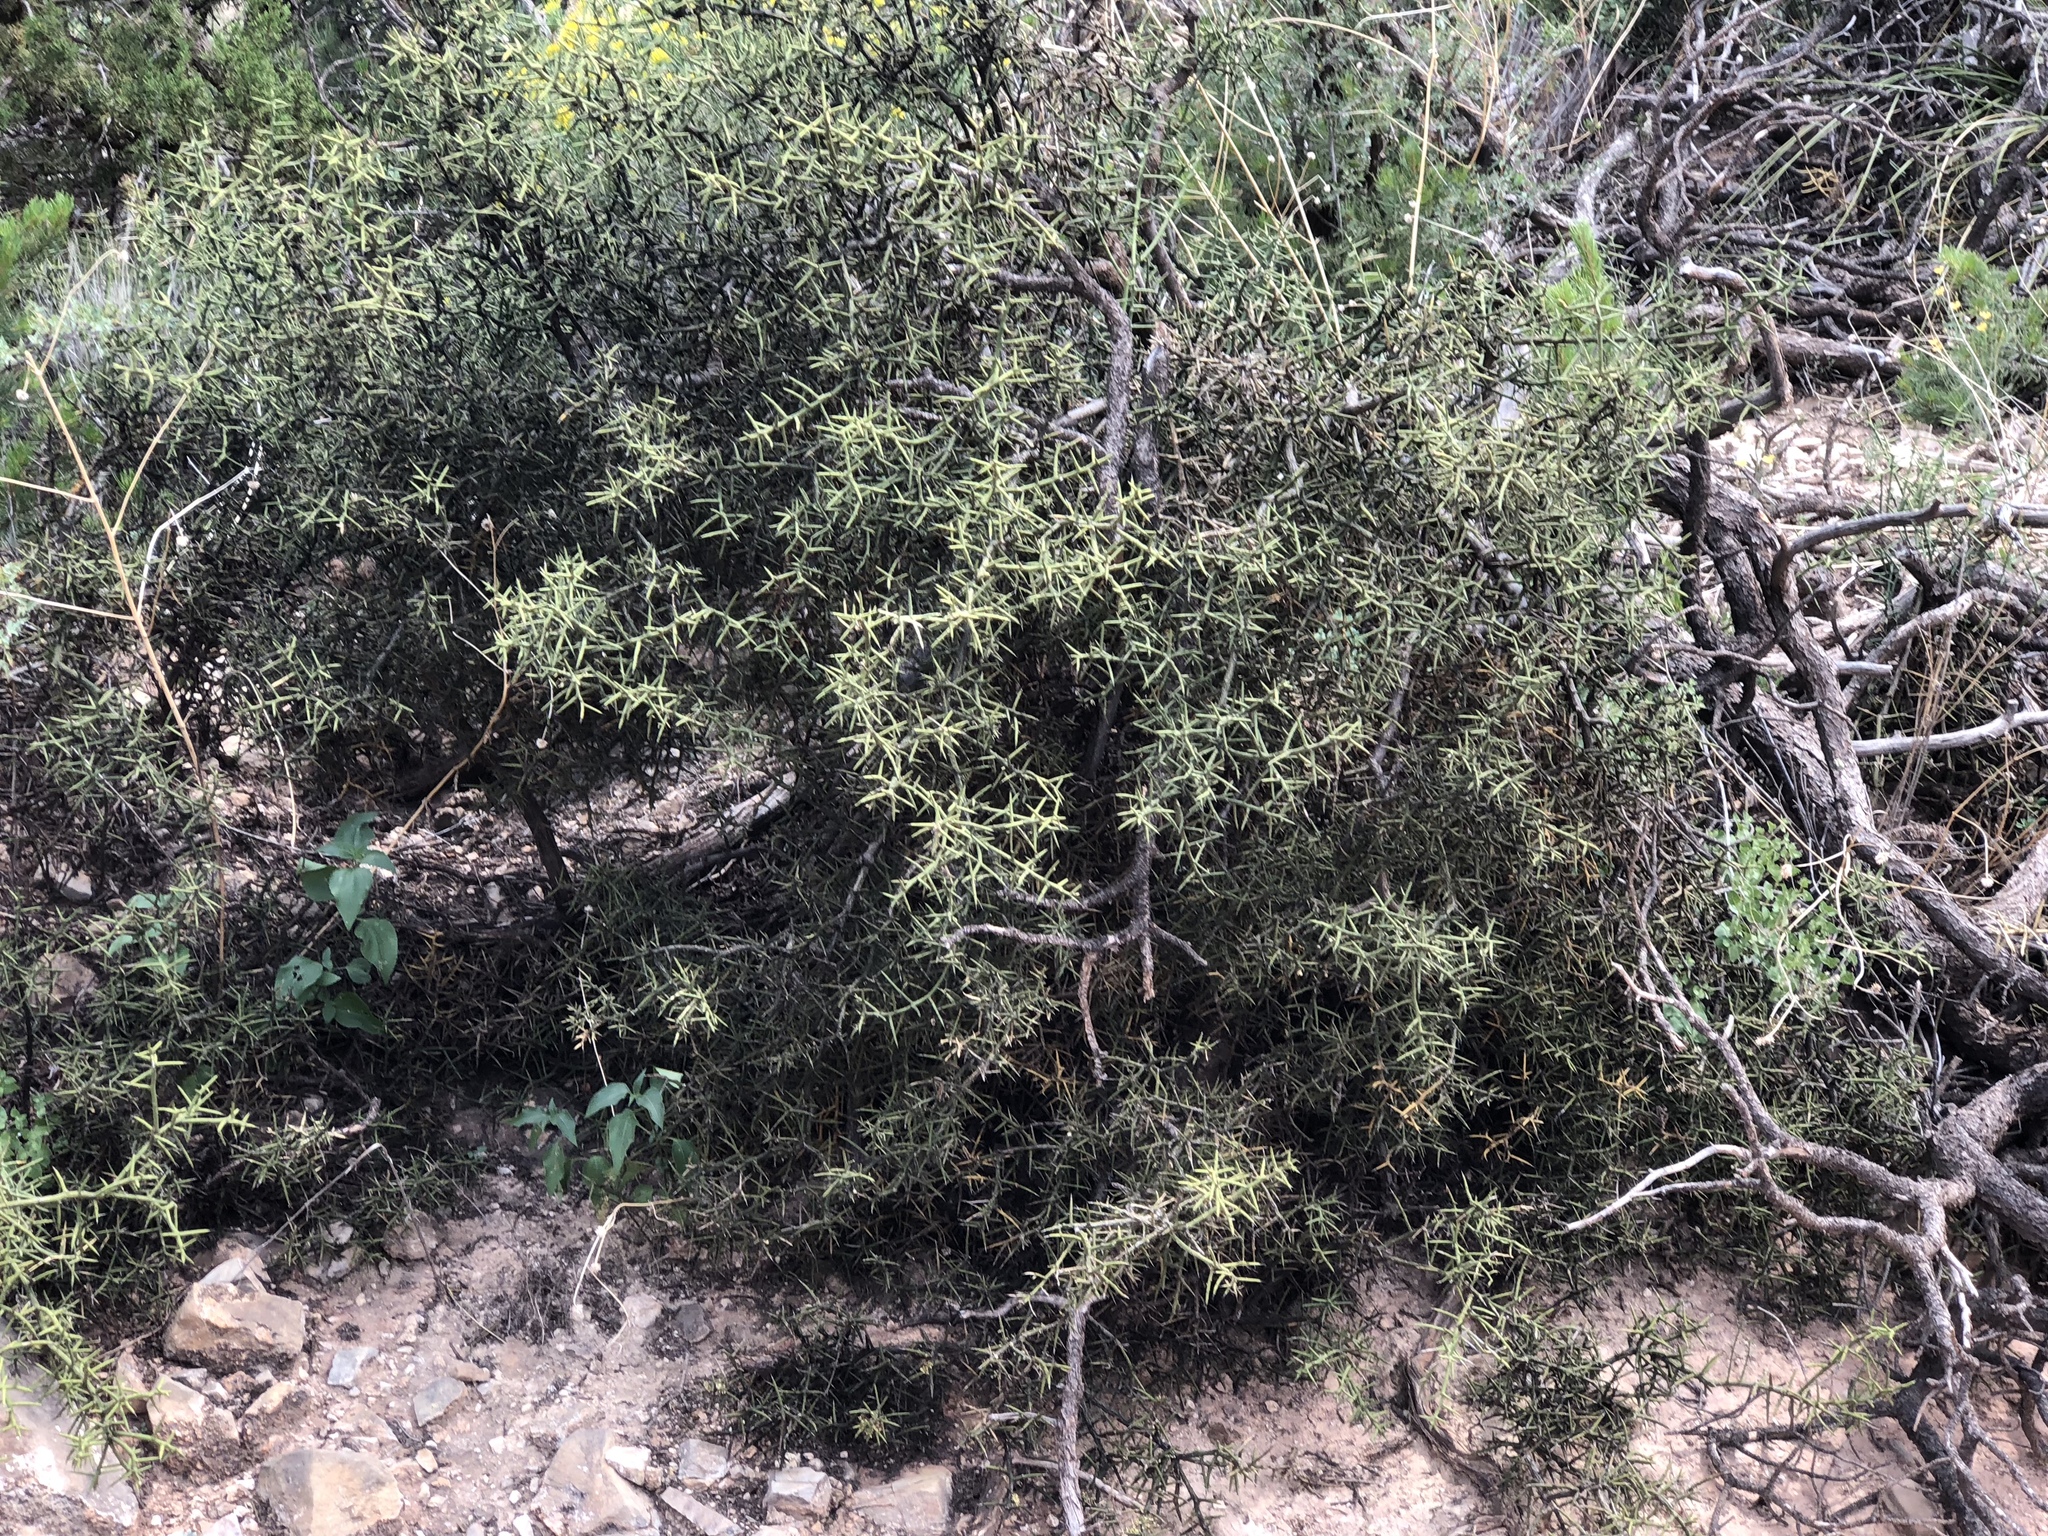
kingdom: Plantae
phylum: Tracheophyta
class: Magnoliopsida
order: Brassicales
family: Koeberliniaceae
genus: Koeberlinia
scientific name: Koeberlinia spinosa
